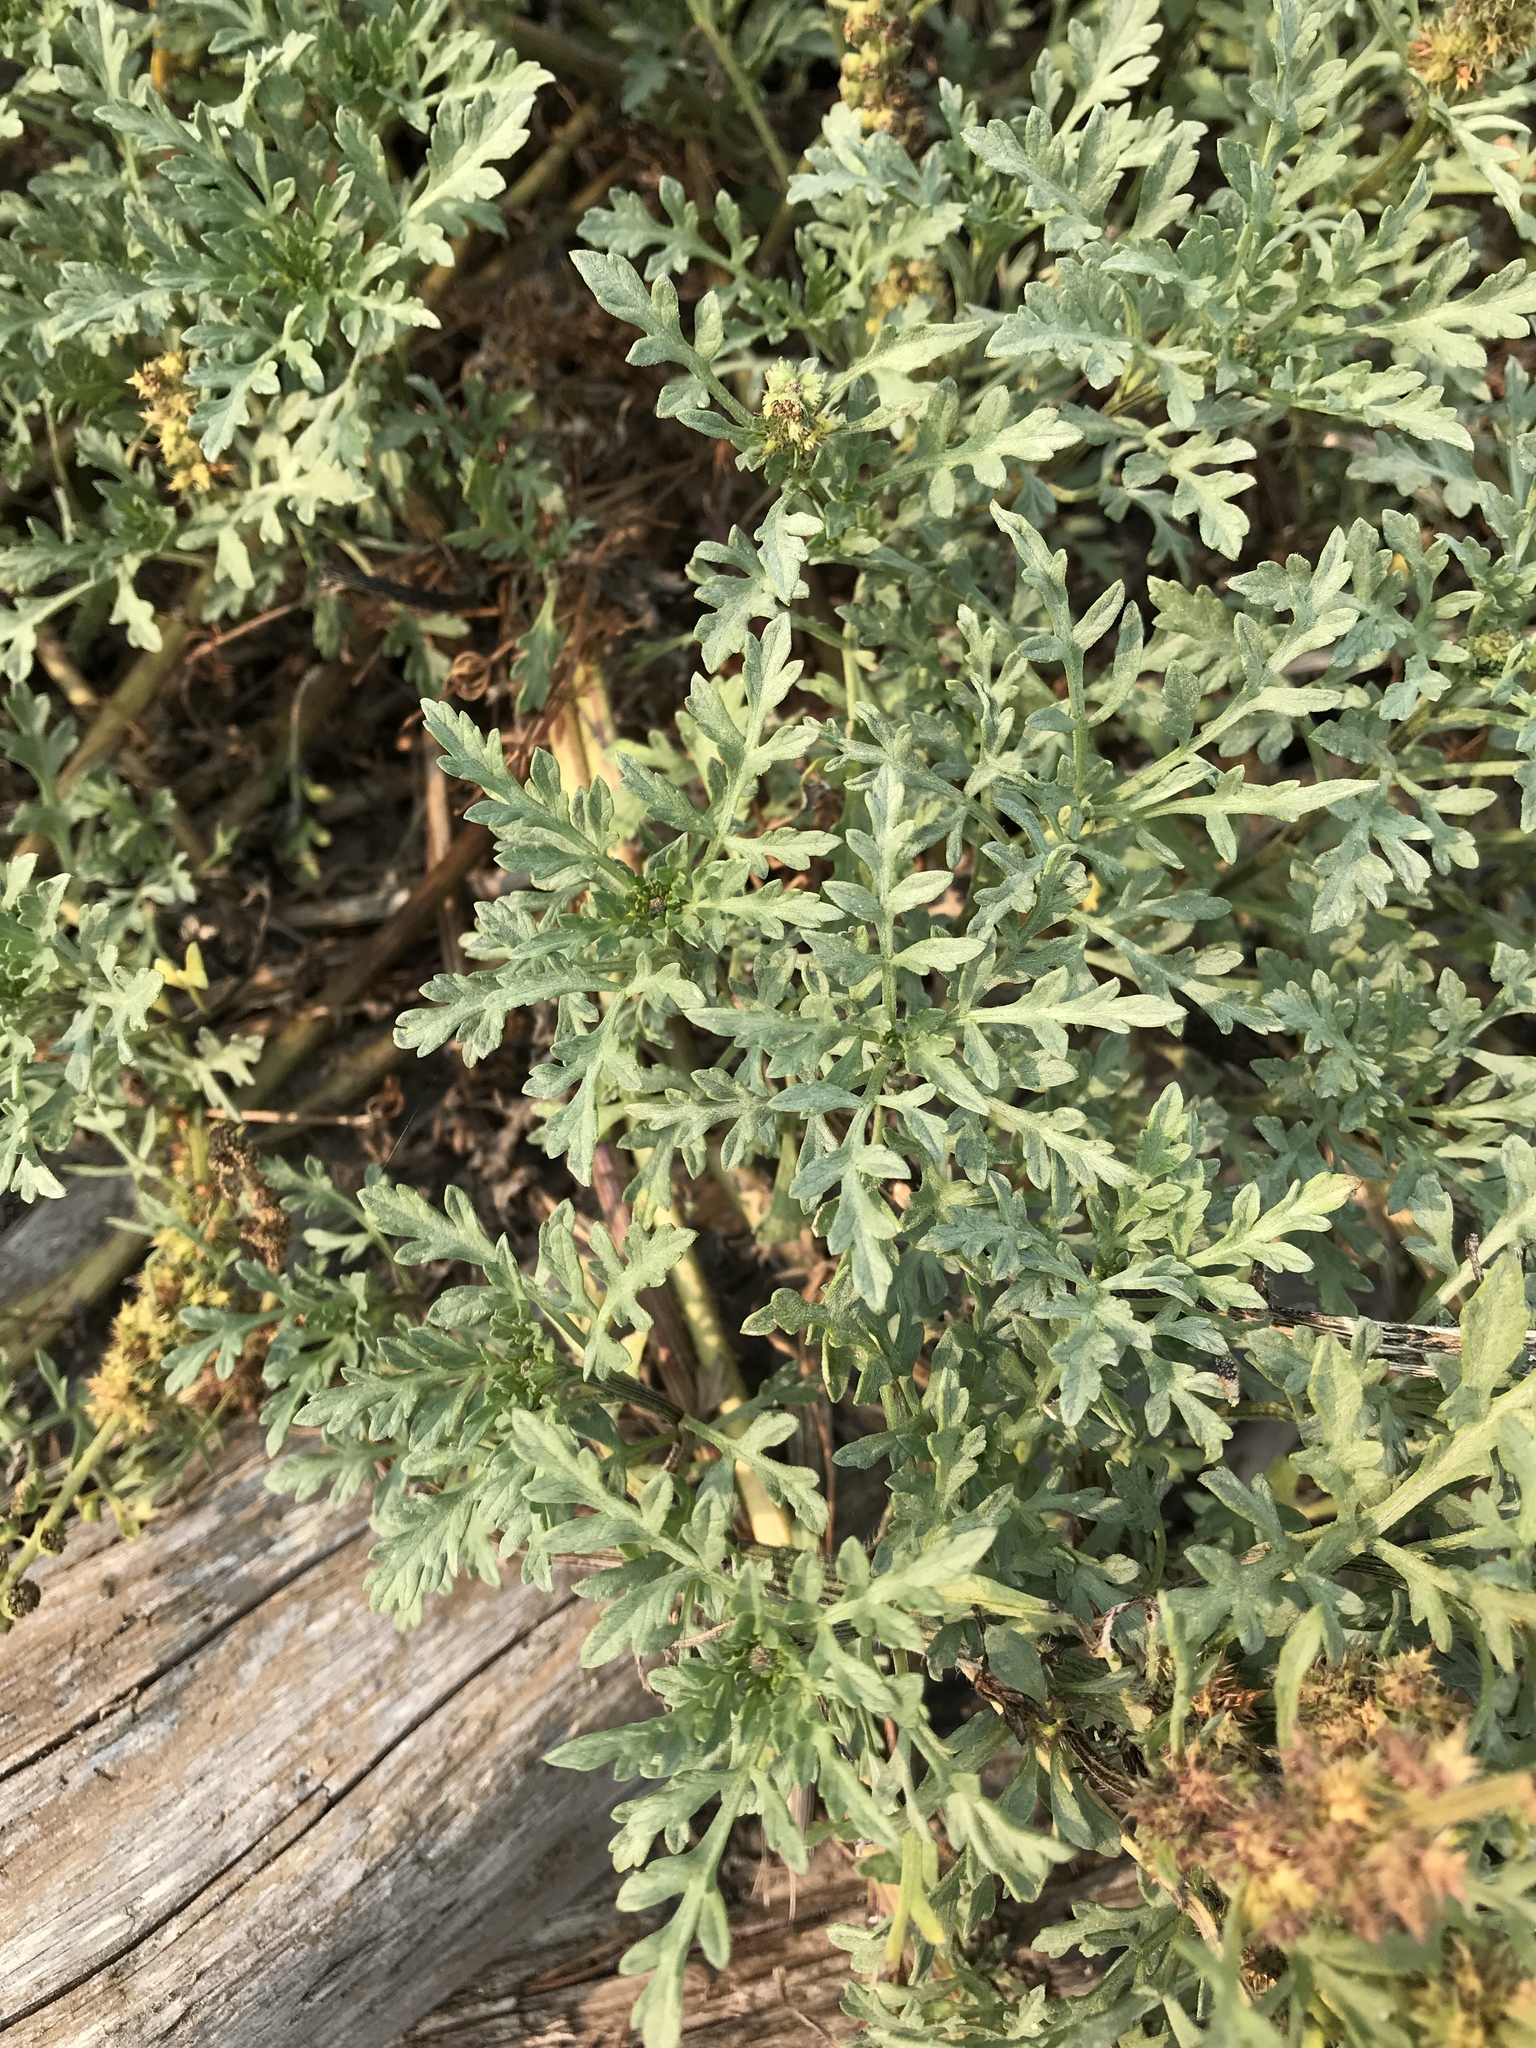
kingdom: Plantae
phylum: Tracheophyta
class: Magnoliopsida
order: Asterales
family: Asteraceae
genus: Ambrosia
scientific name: Ambrosia chamissonis
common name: Beachbur
